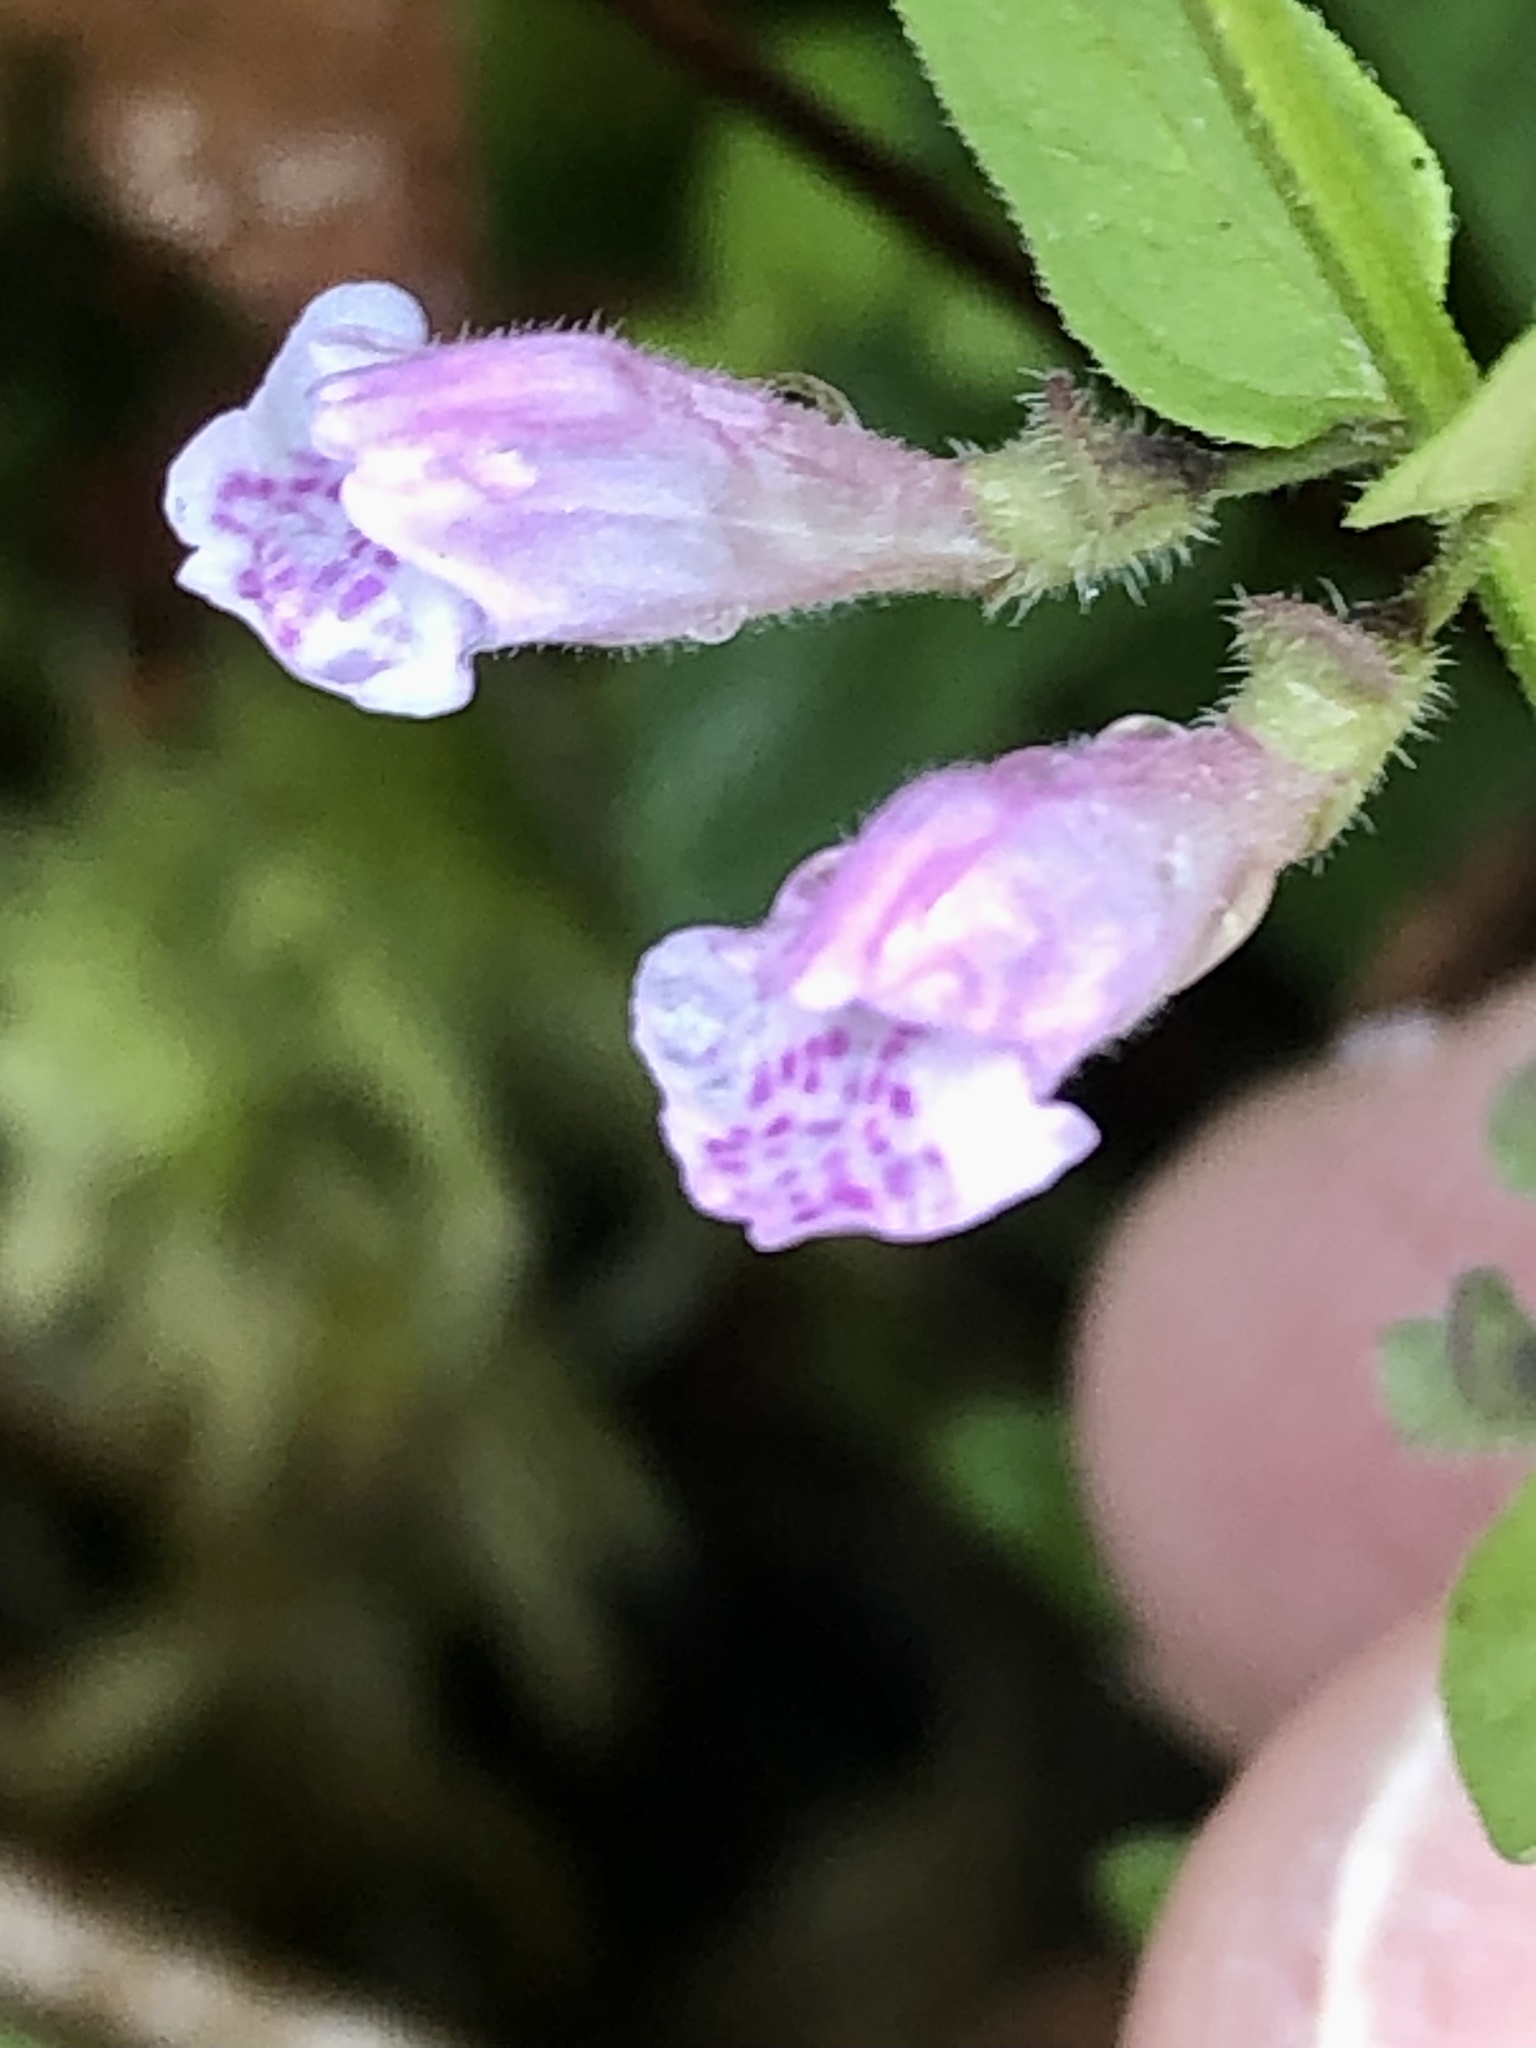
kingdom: Plantae
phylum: Tracheophyta
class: Magnoliopsida
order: Lamiales
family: Lamiaceae
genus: Scutellaria
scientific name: Scutellaria minor
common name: Lesser skullcap
